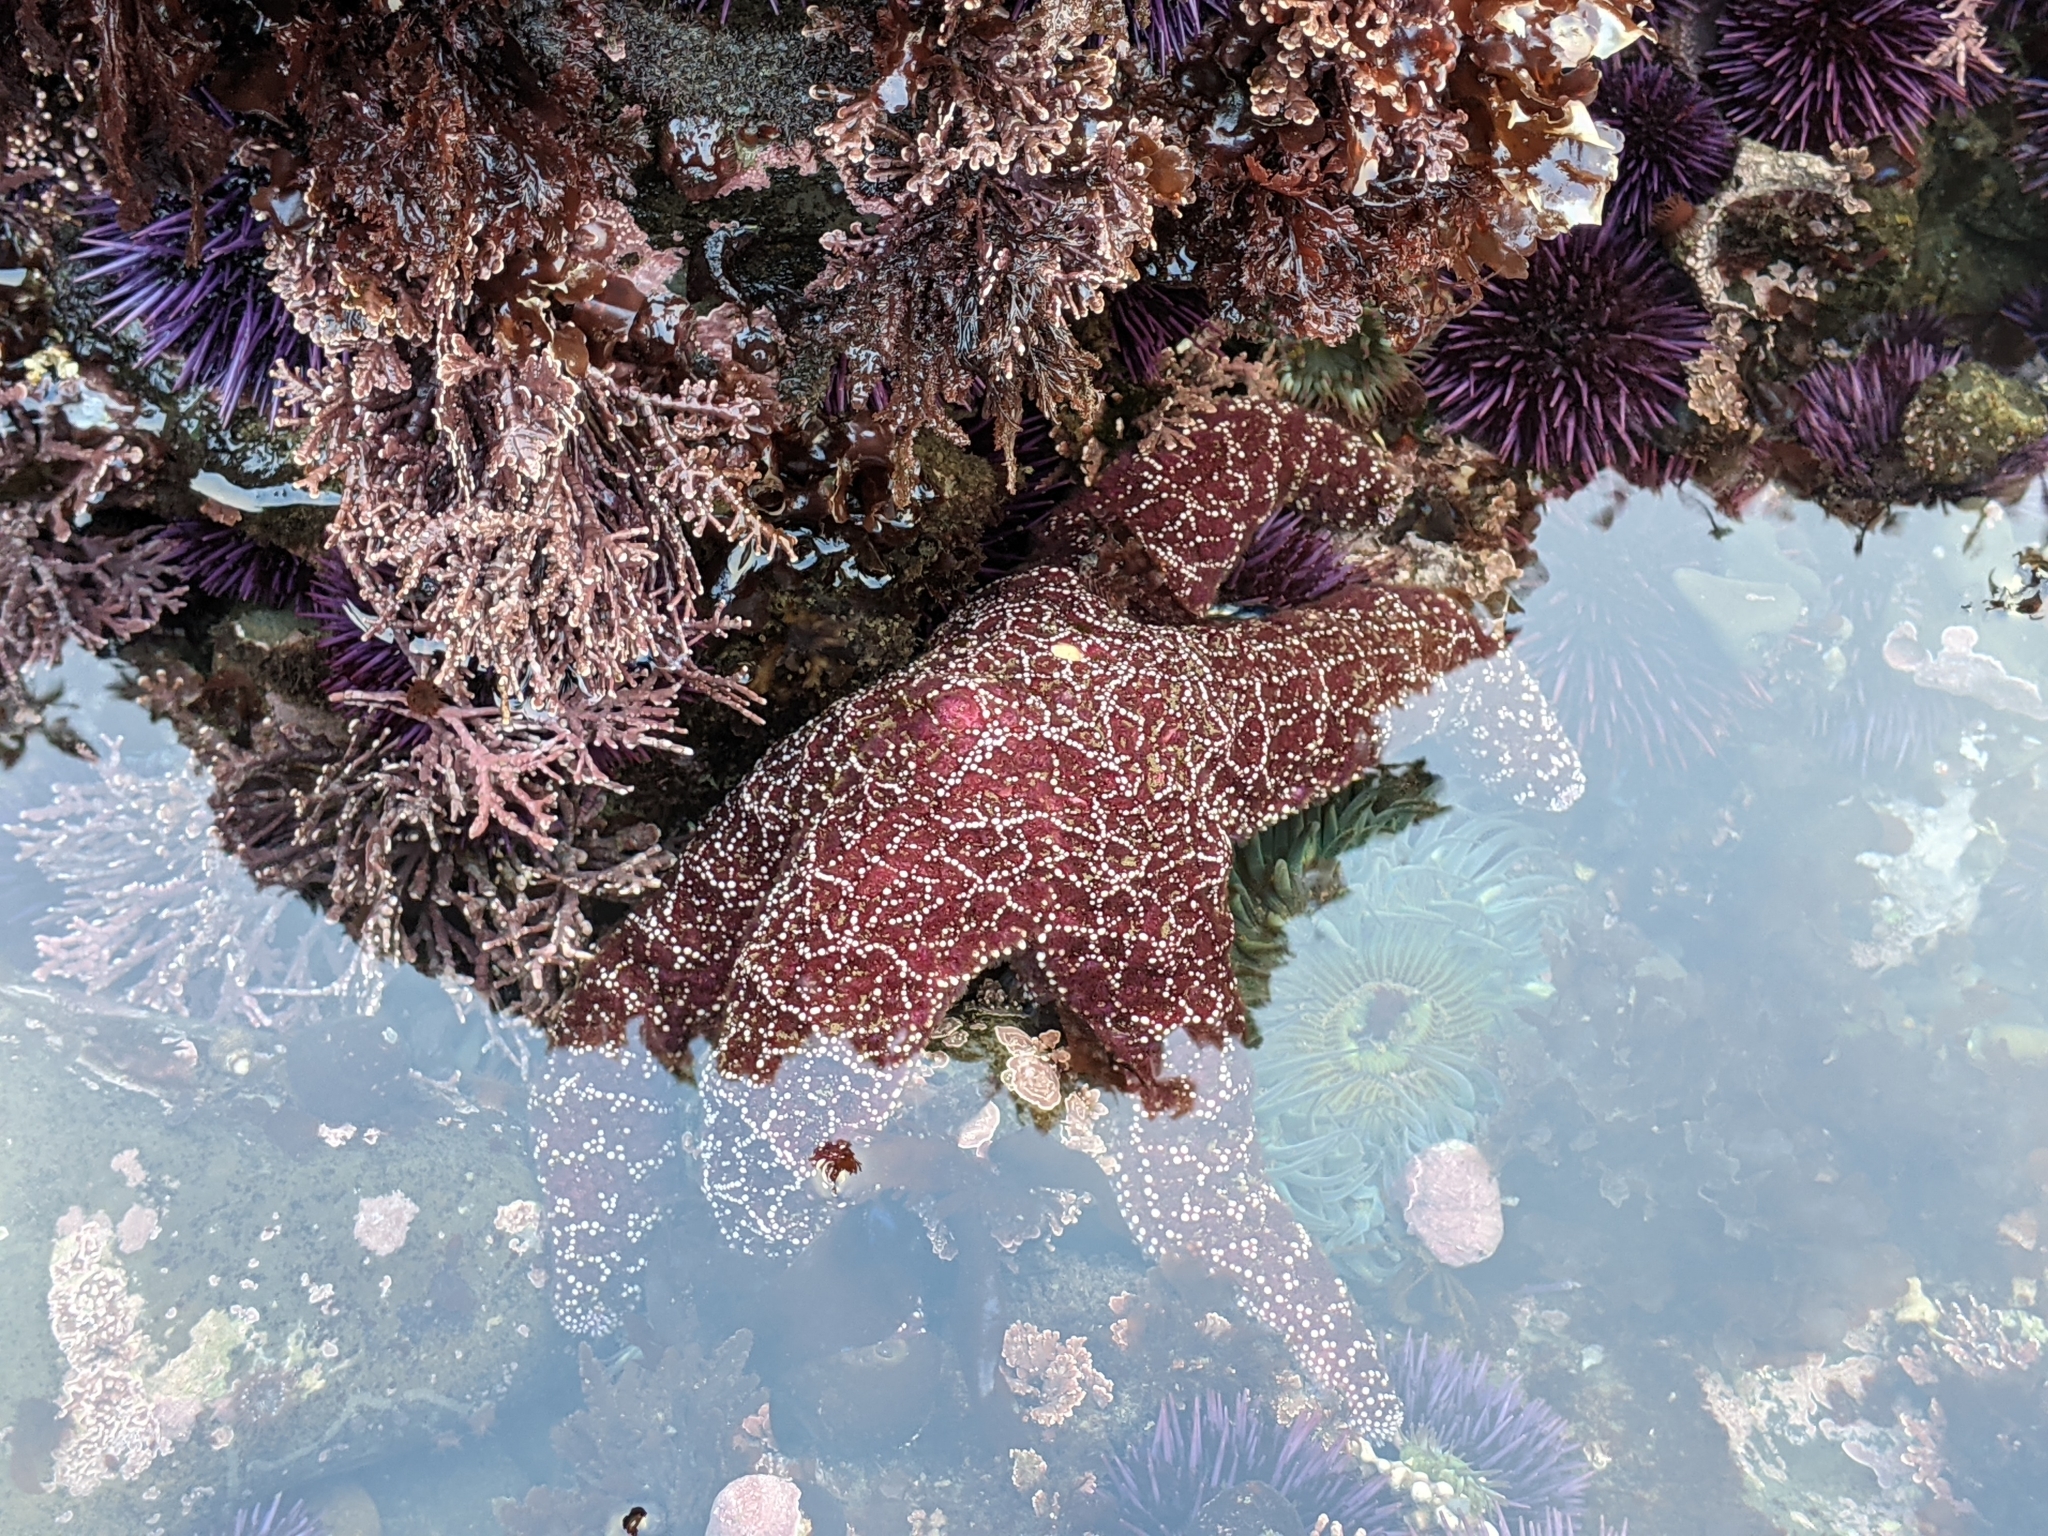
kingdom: Animalia
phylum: Echinodermata
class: Asteroidea
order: Forcipulatida
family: Asteriidae
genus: Pisaster
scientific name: Pisaster ochraceus
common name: Ochre stars
